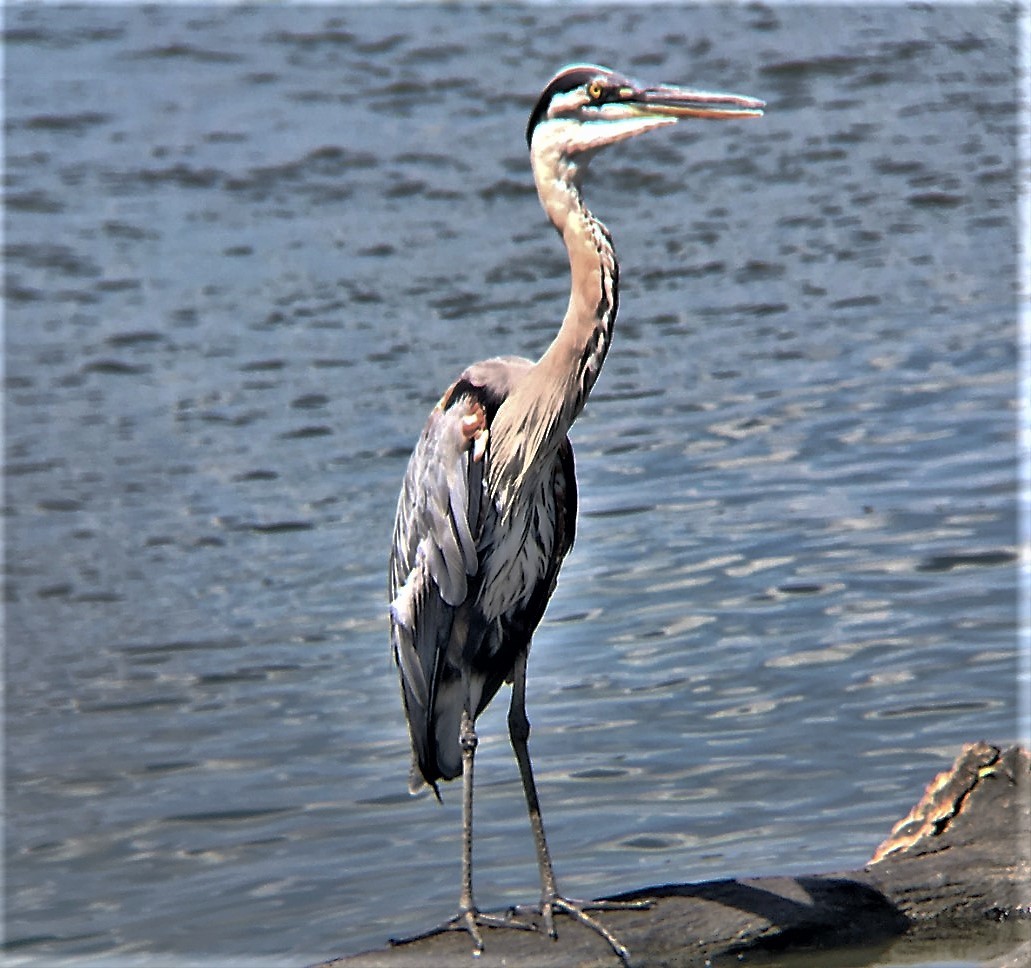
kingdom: Animalia
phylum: Chordata
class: Aves
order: Pelecaniformes
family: Ardeidae
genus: Ardea
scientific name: Ardea herodias
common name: Great blue heron
